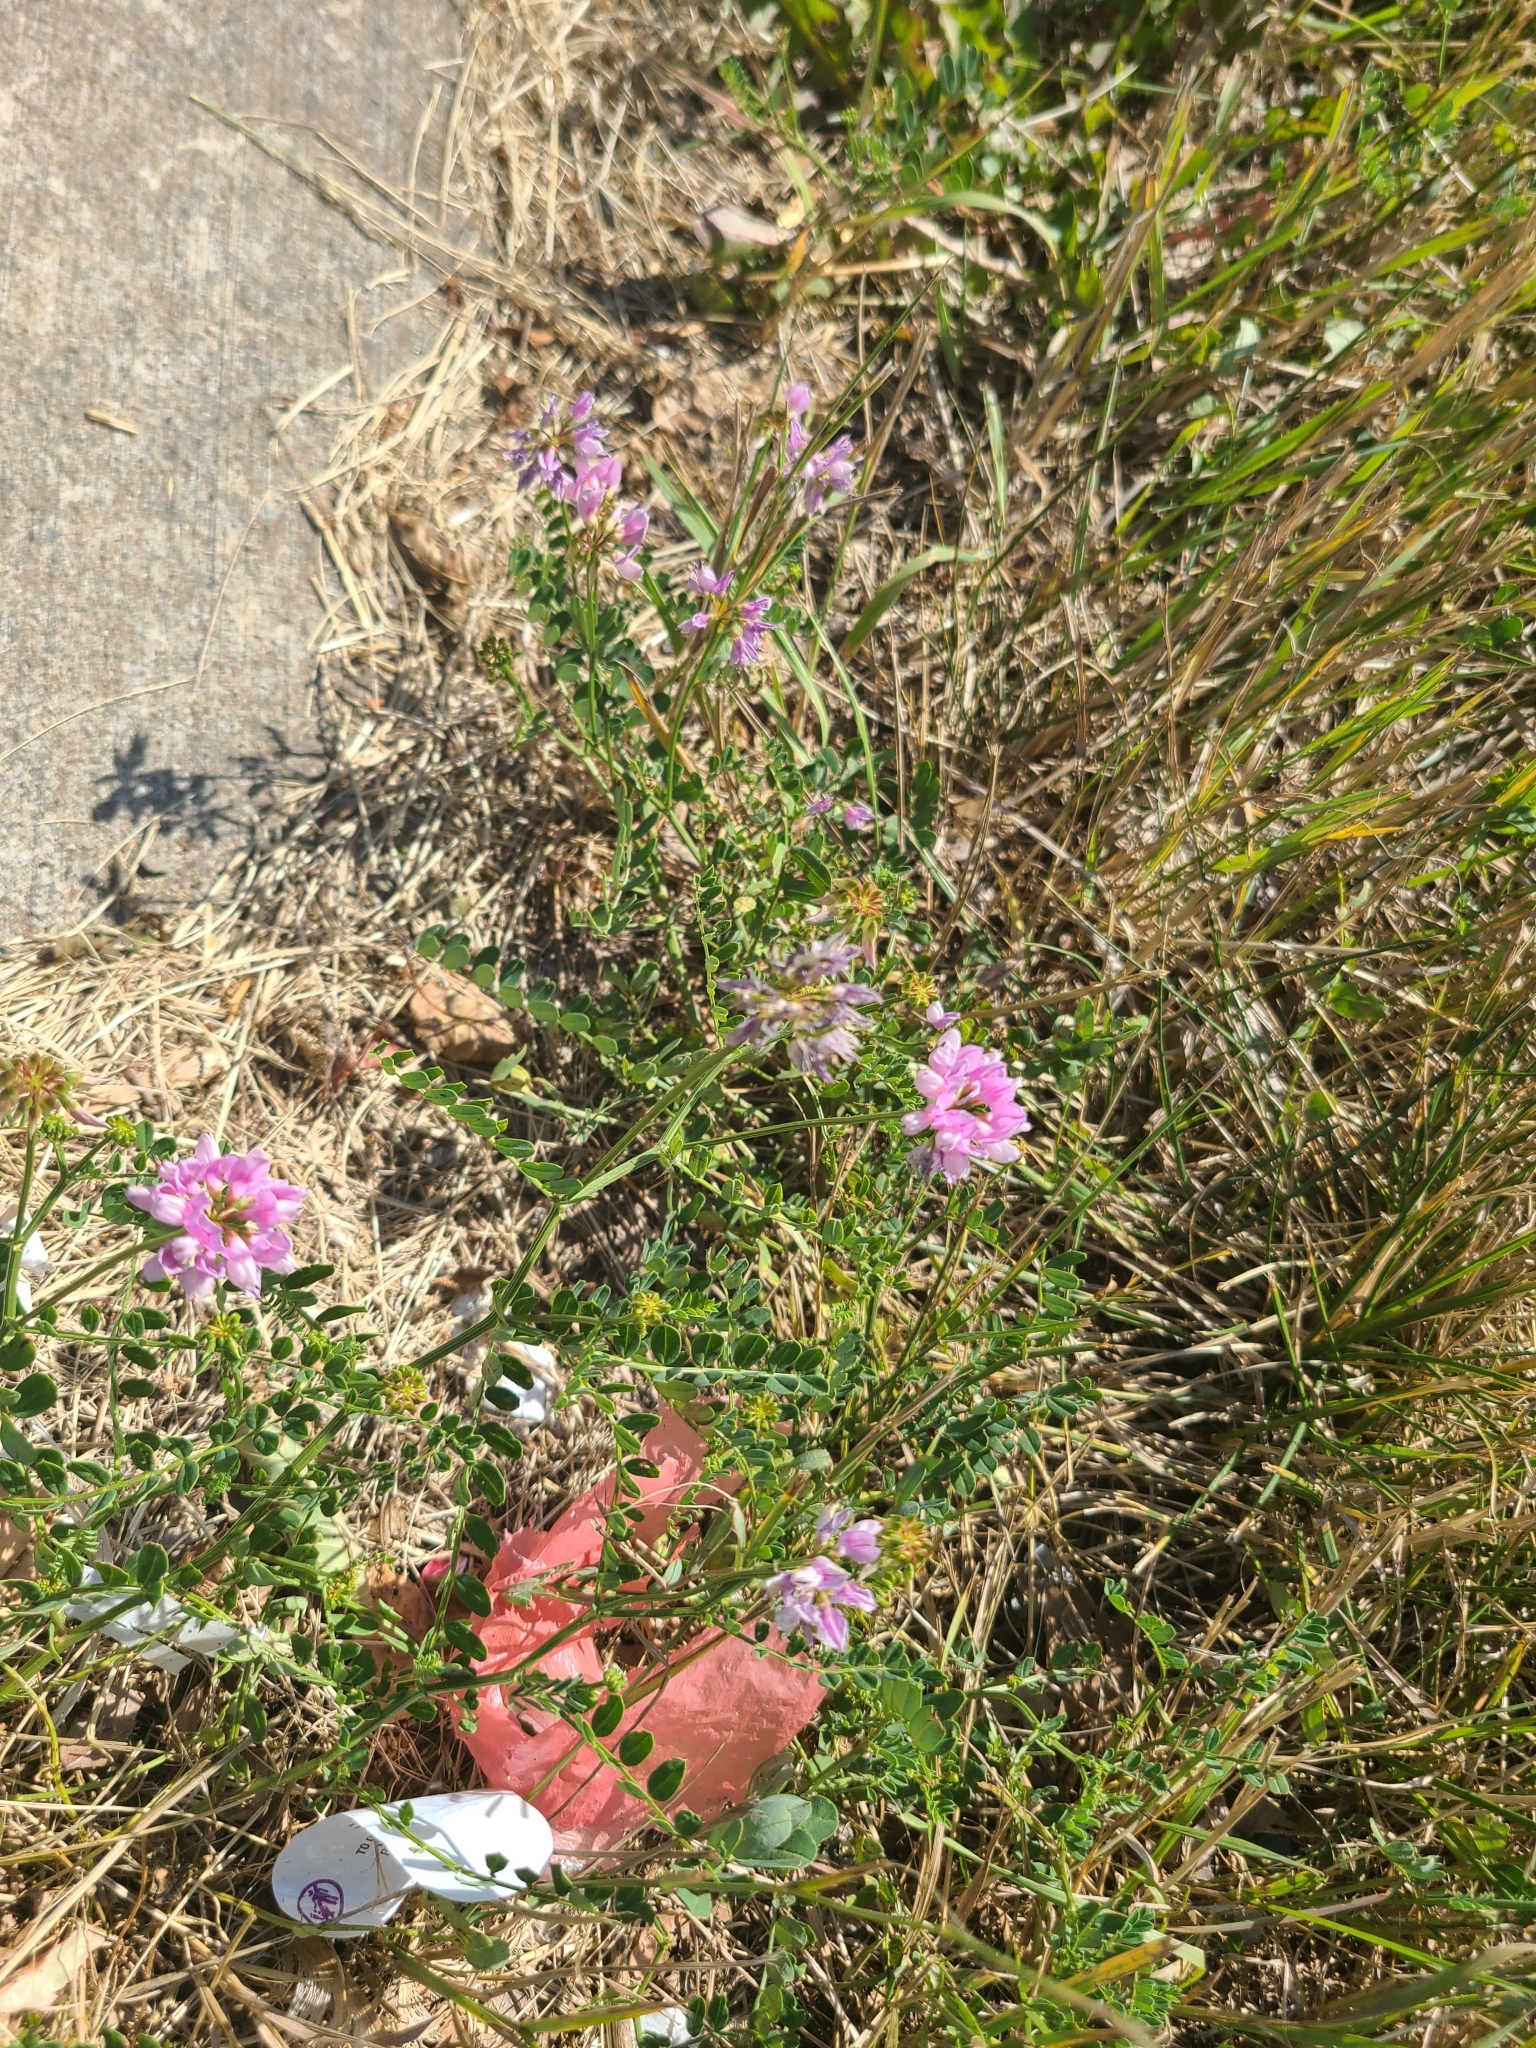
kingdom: Plantae
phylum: Tracheophyta
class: Magnoliopsida
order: Fabales
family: Fabaceae
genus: Coronilla
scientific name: Coronilla varia
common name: Crownvetch
